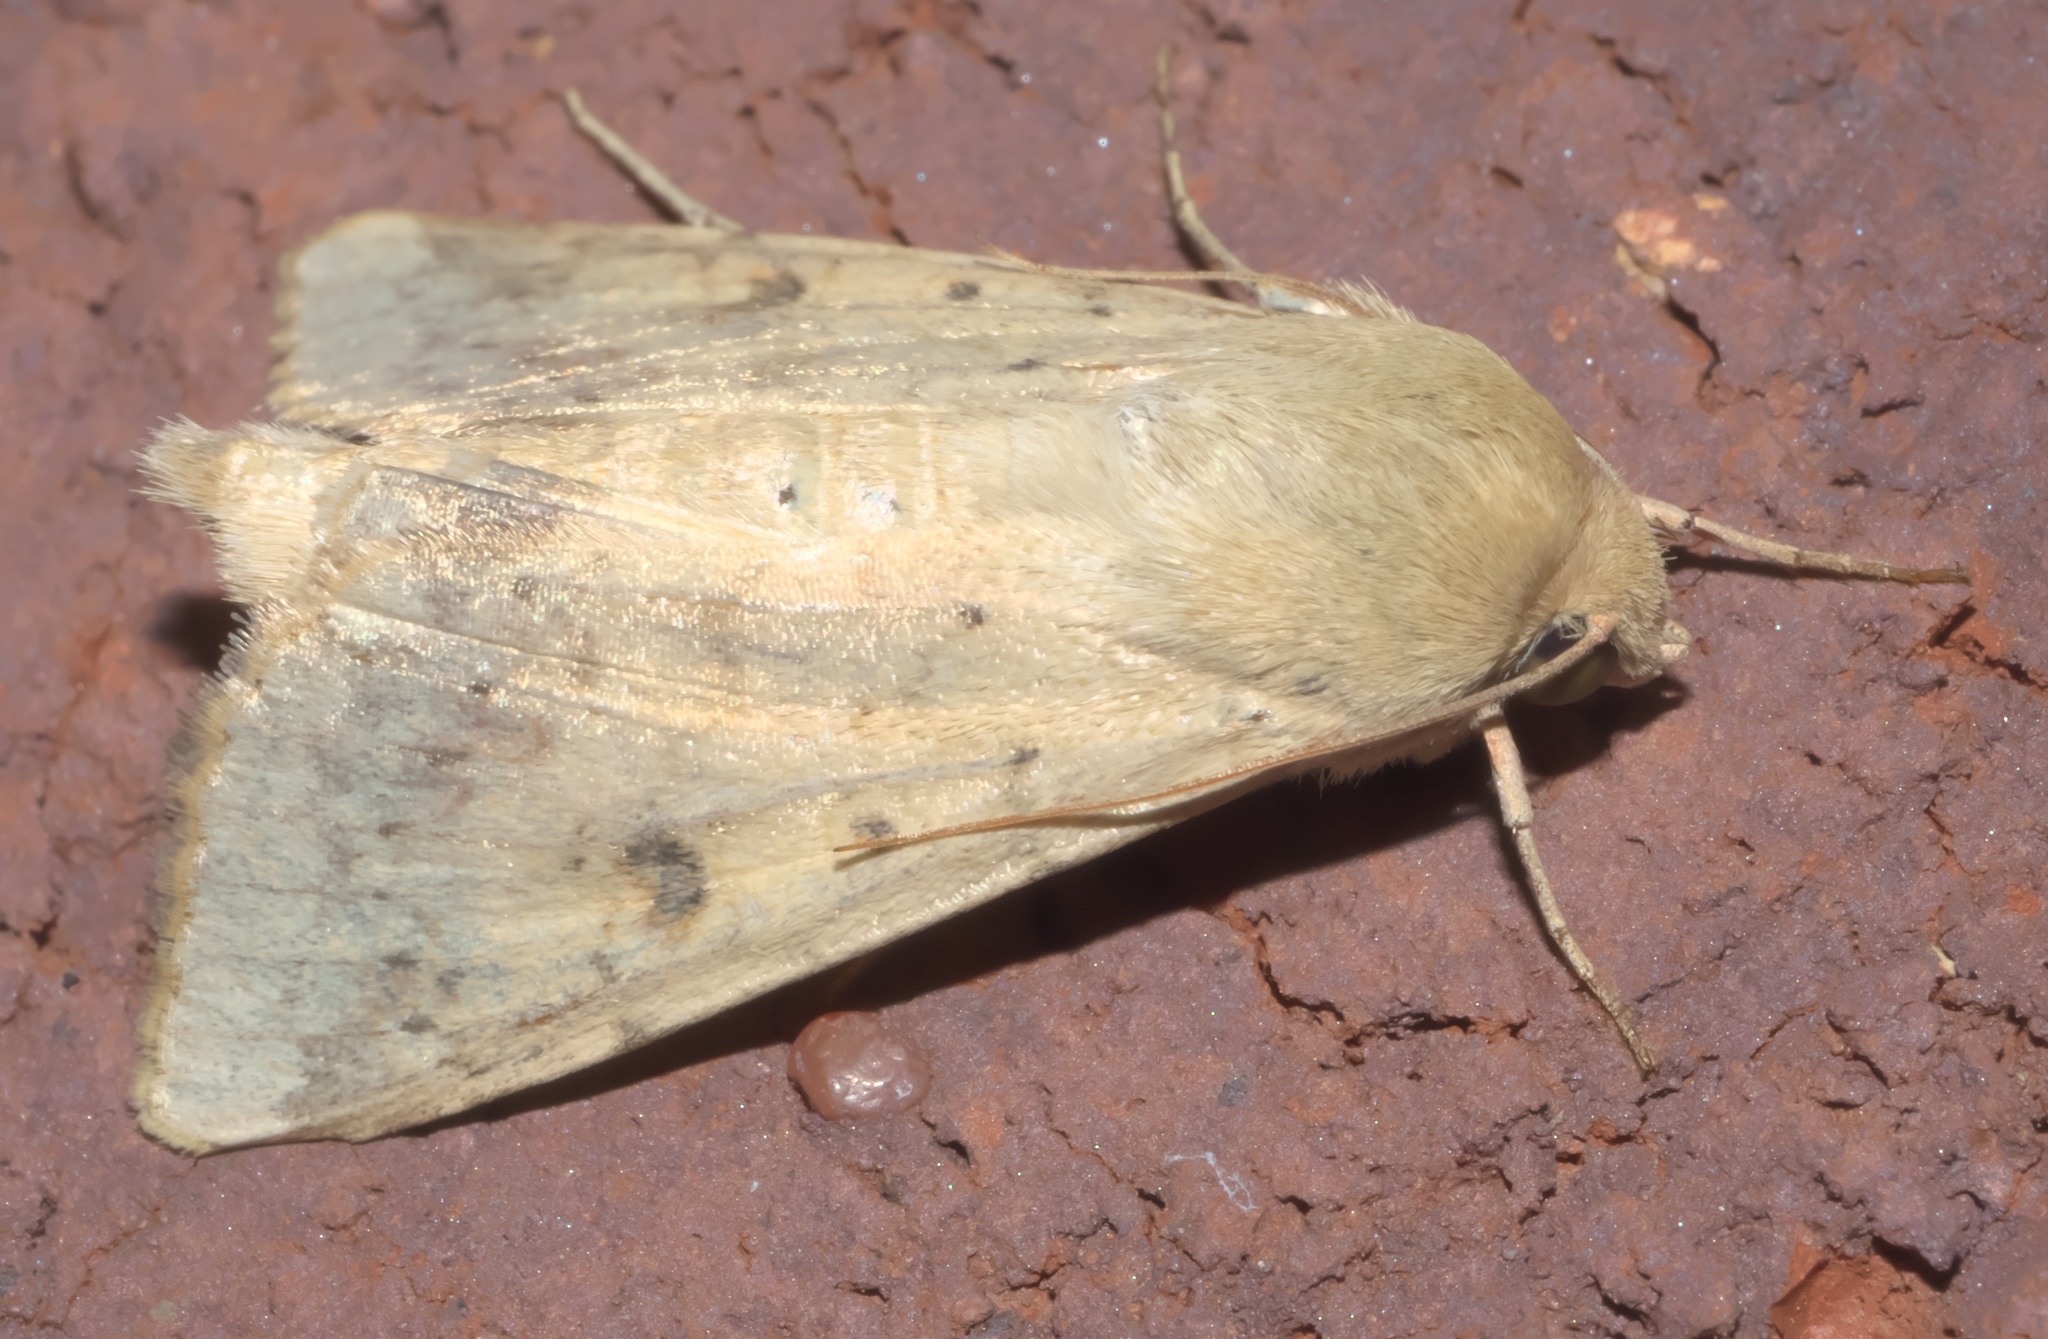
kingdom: Animalia
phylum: Arthropoda
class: Insecta
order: Lepidoptera
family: Noctuidae
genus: Helicoverpa
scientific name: Helicoverpa zea
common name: Bollworm
